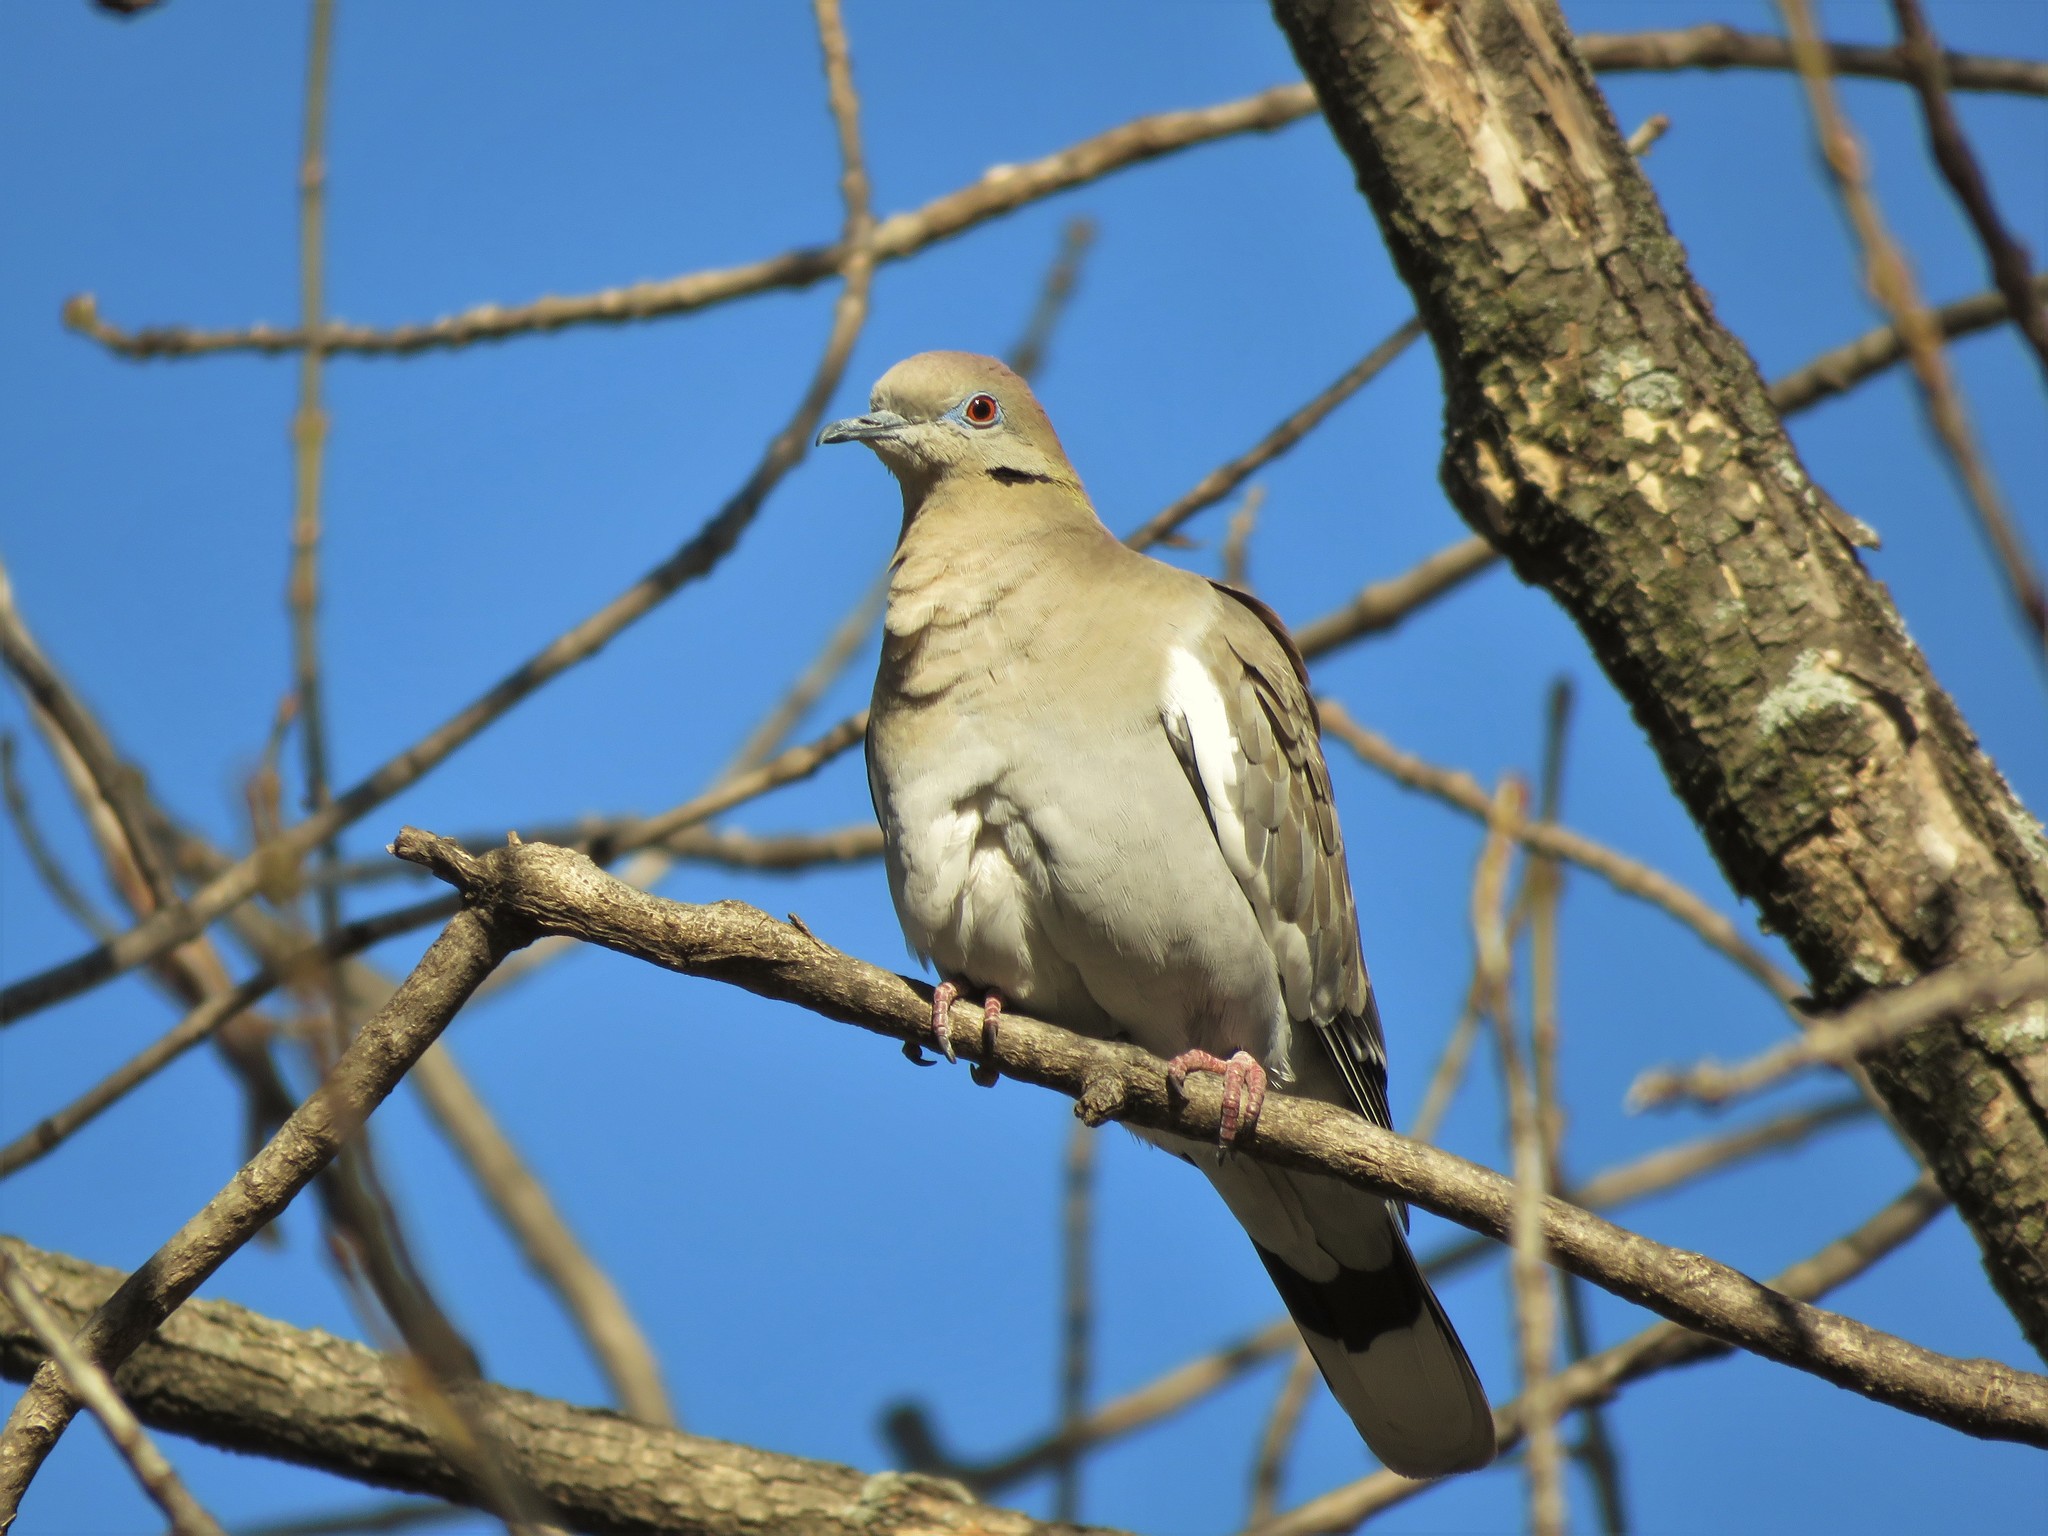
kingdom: Animalia
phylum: Chordata
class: Aves
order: Columbiformes
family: Columbidae
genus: Zenaida
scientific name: Zenaida asiatica
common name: White-winged dove
